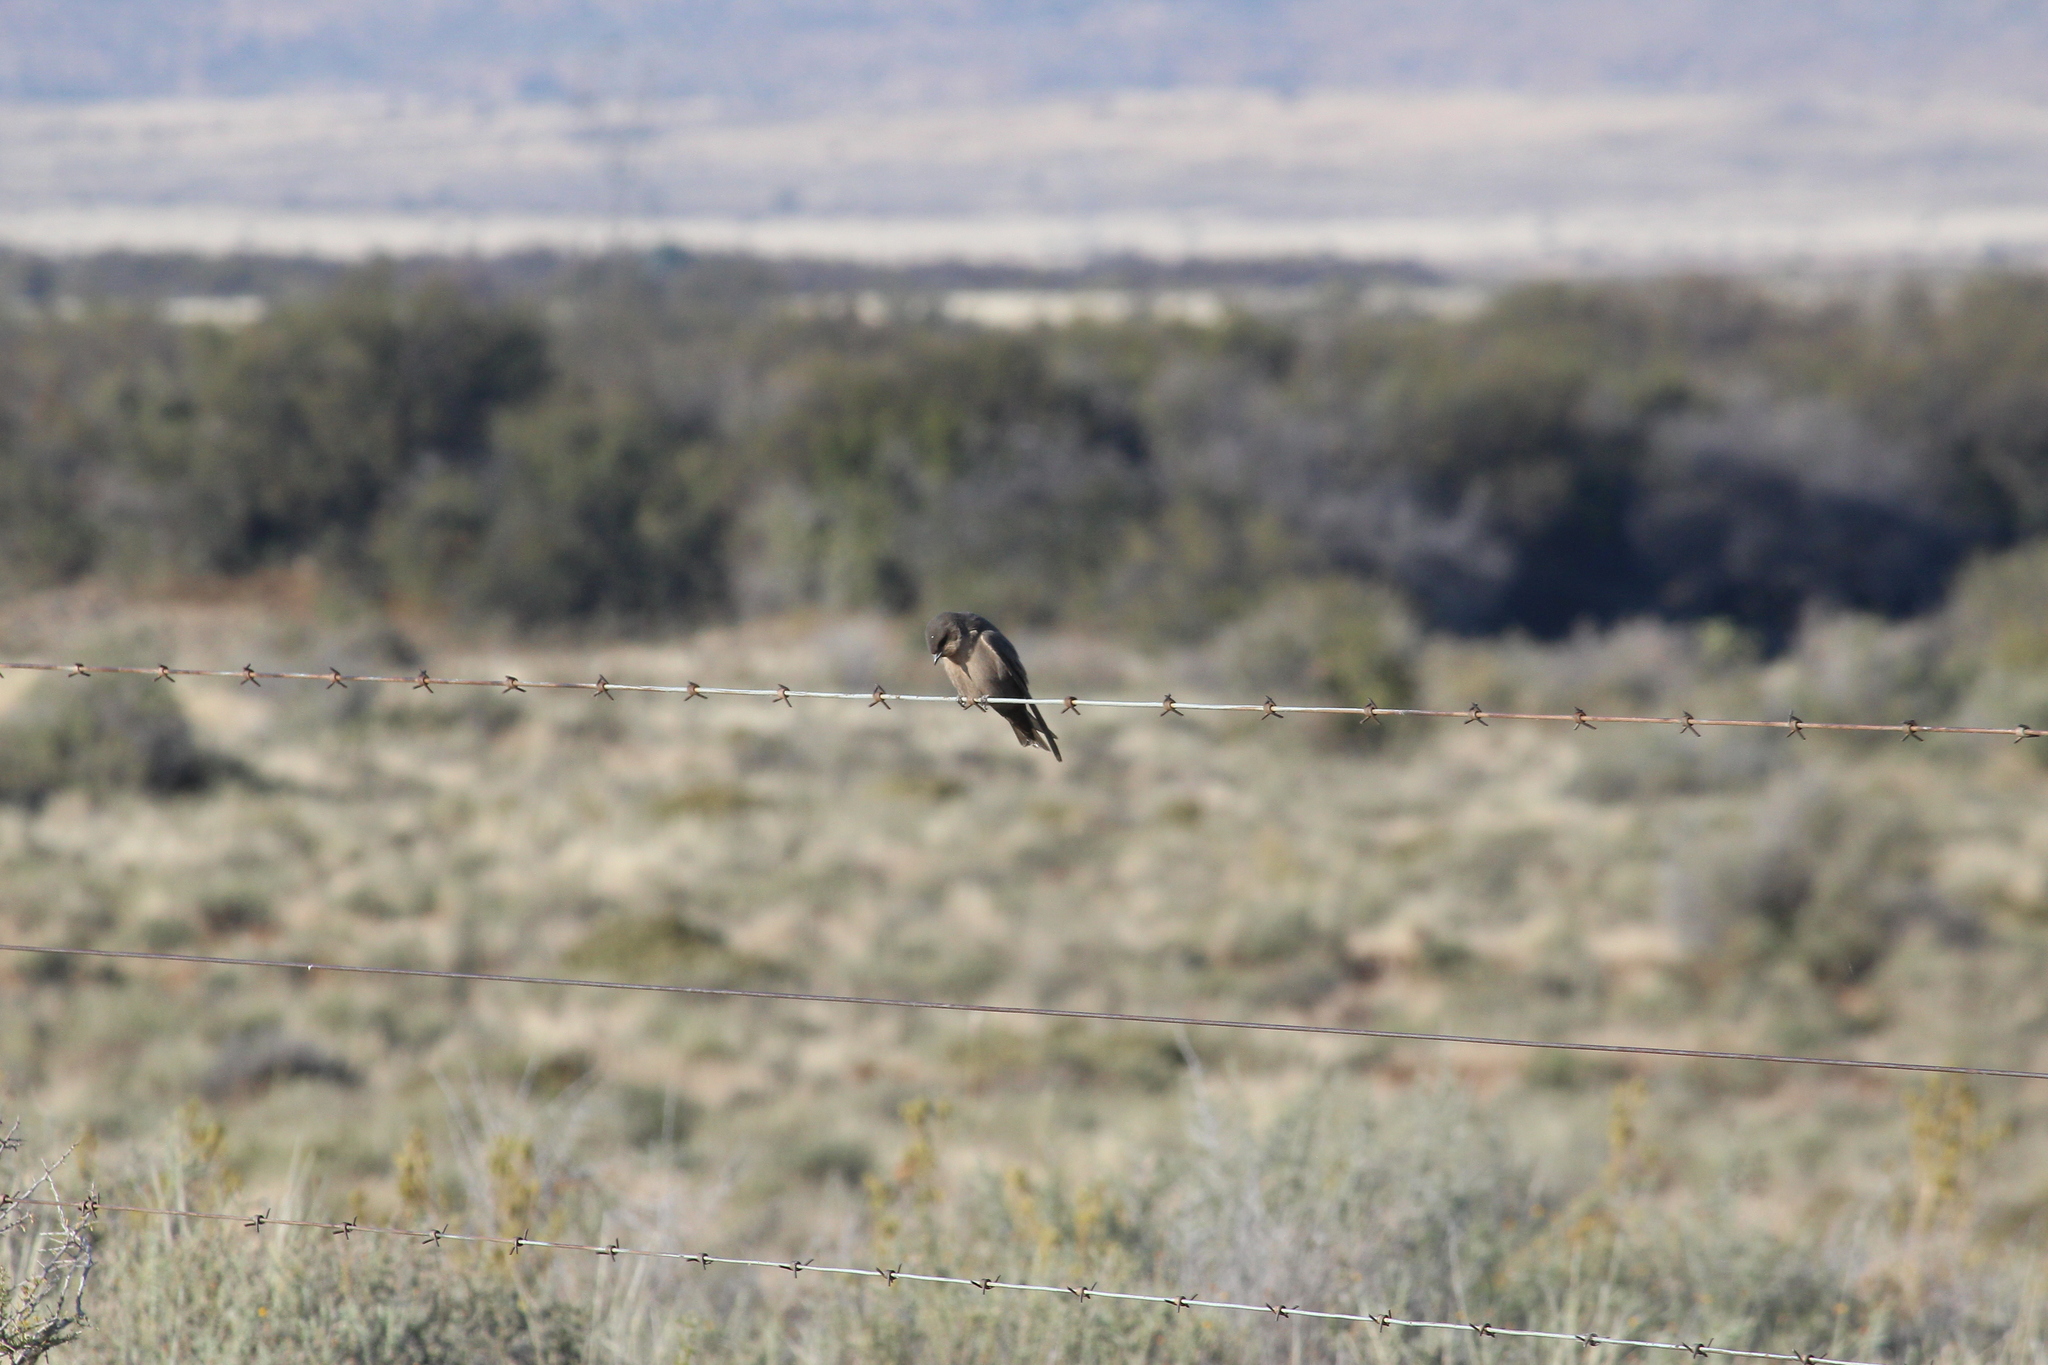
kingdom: Animalia
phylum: Chordata
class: Aves
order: Passeriformes
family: Hirundinidae
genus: Ptyonoprogne
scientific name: Ptyonoprogne fuligula
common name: Rock martin
